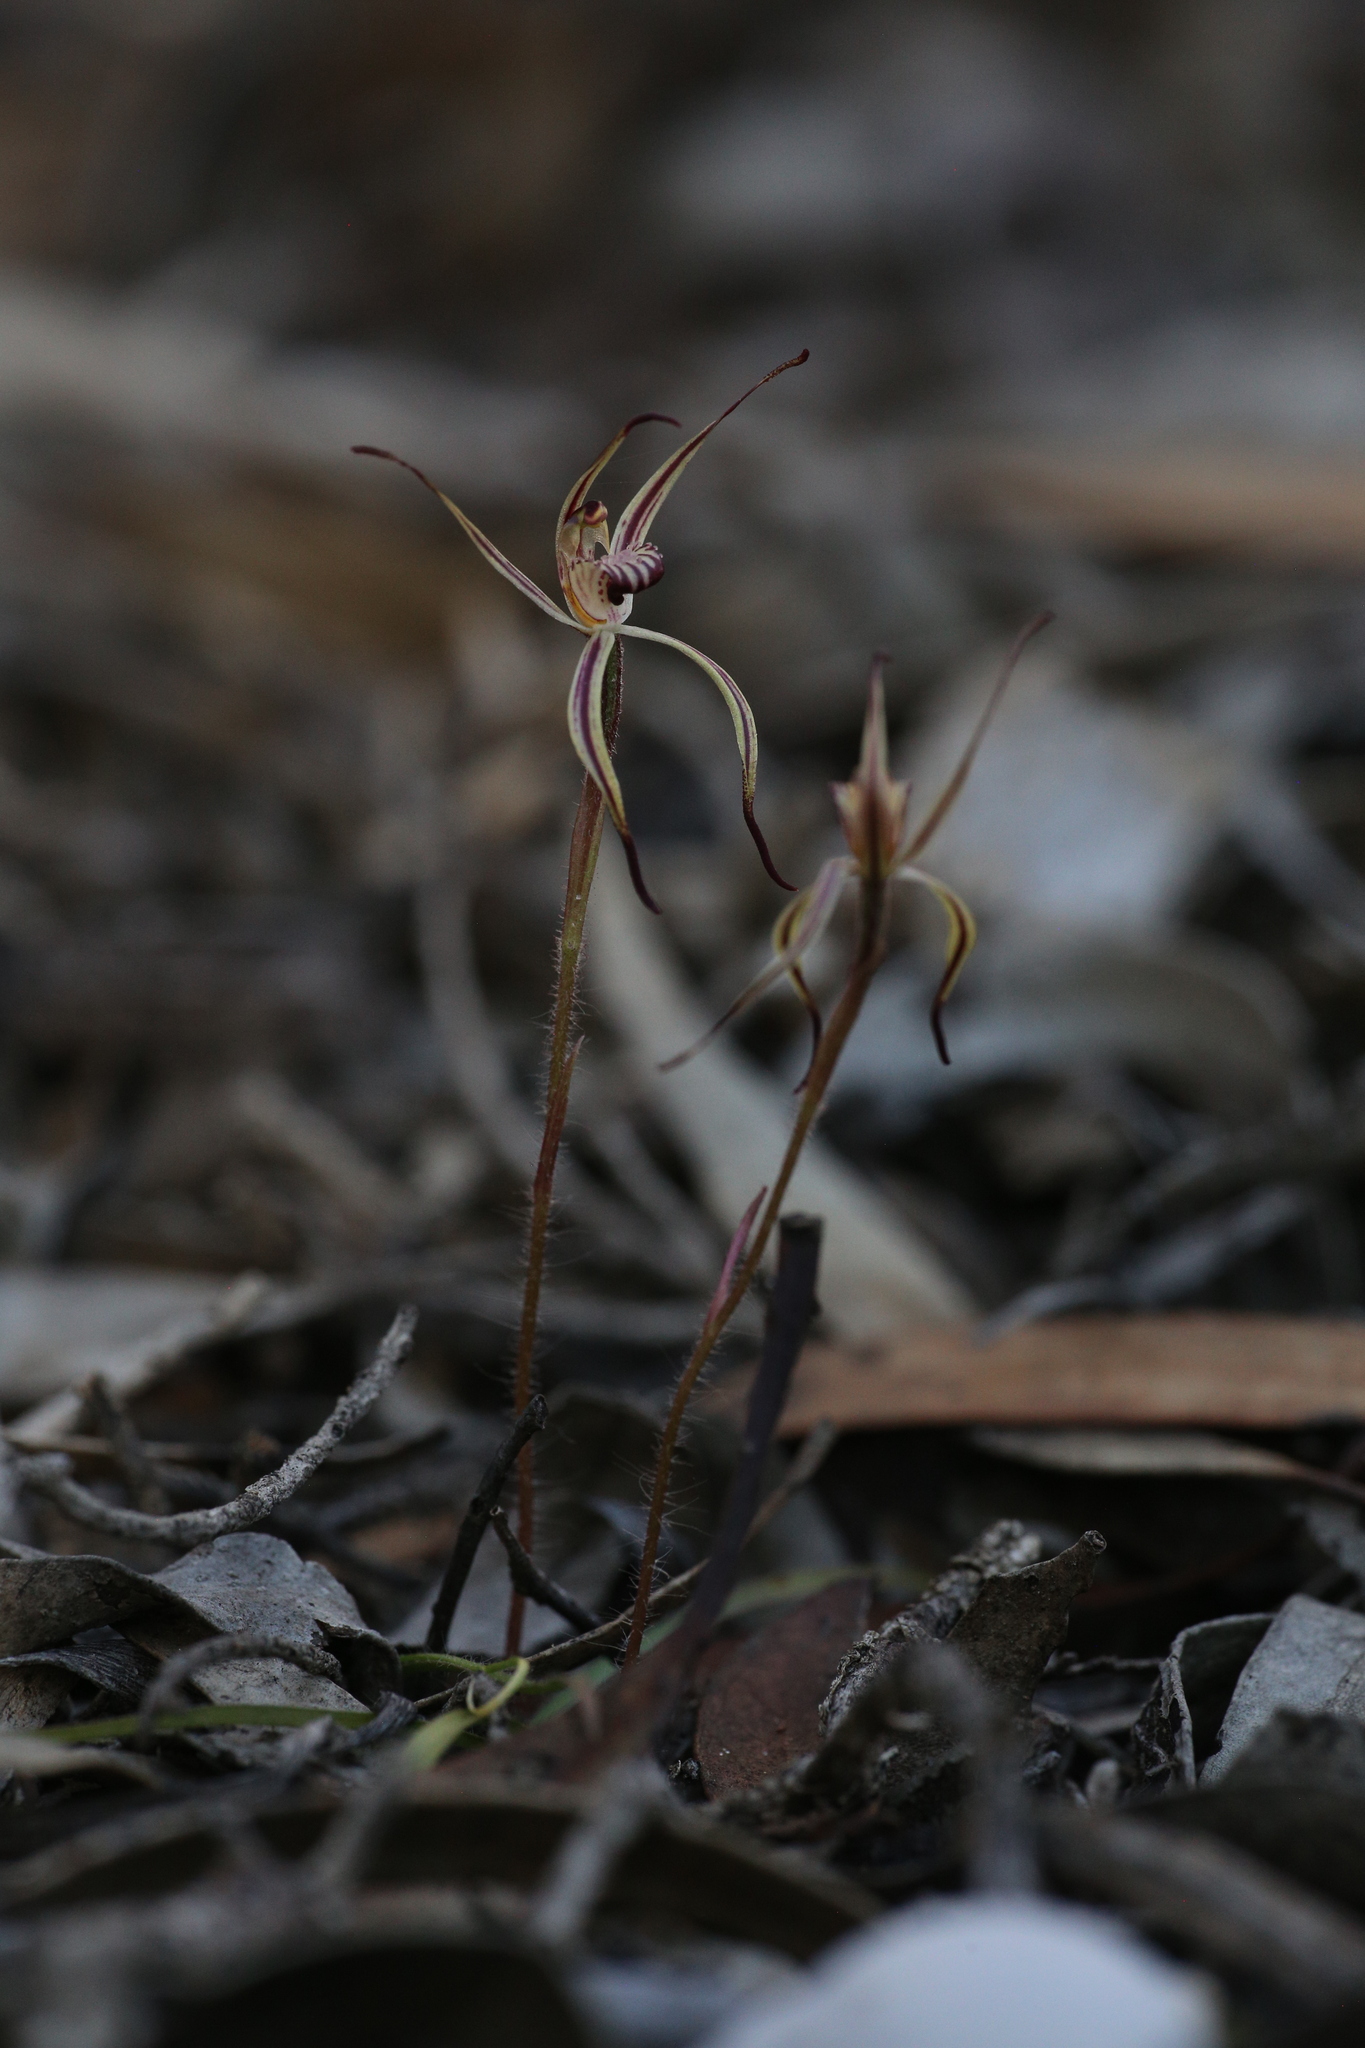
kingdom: Plantae
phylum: Tracheophyta
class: Liliopsida
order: Asparagales
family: Orchidaceae
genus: Caladenia
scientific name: Caladenia sigmoidea
